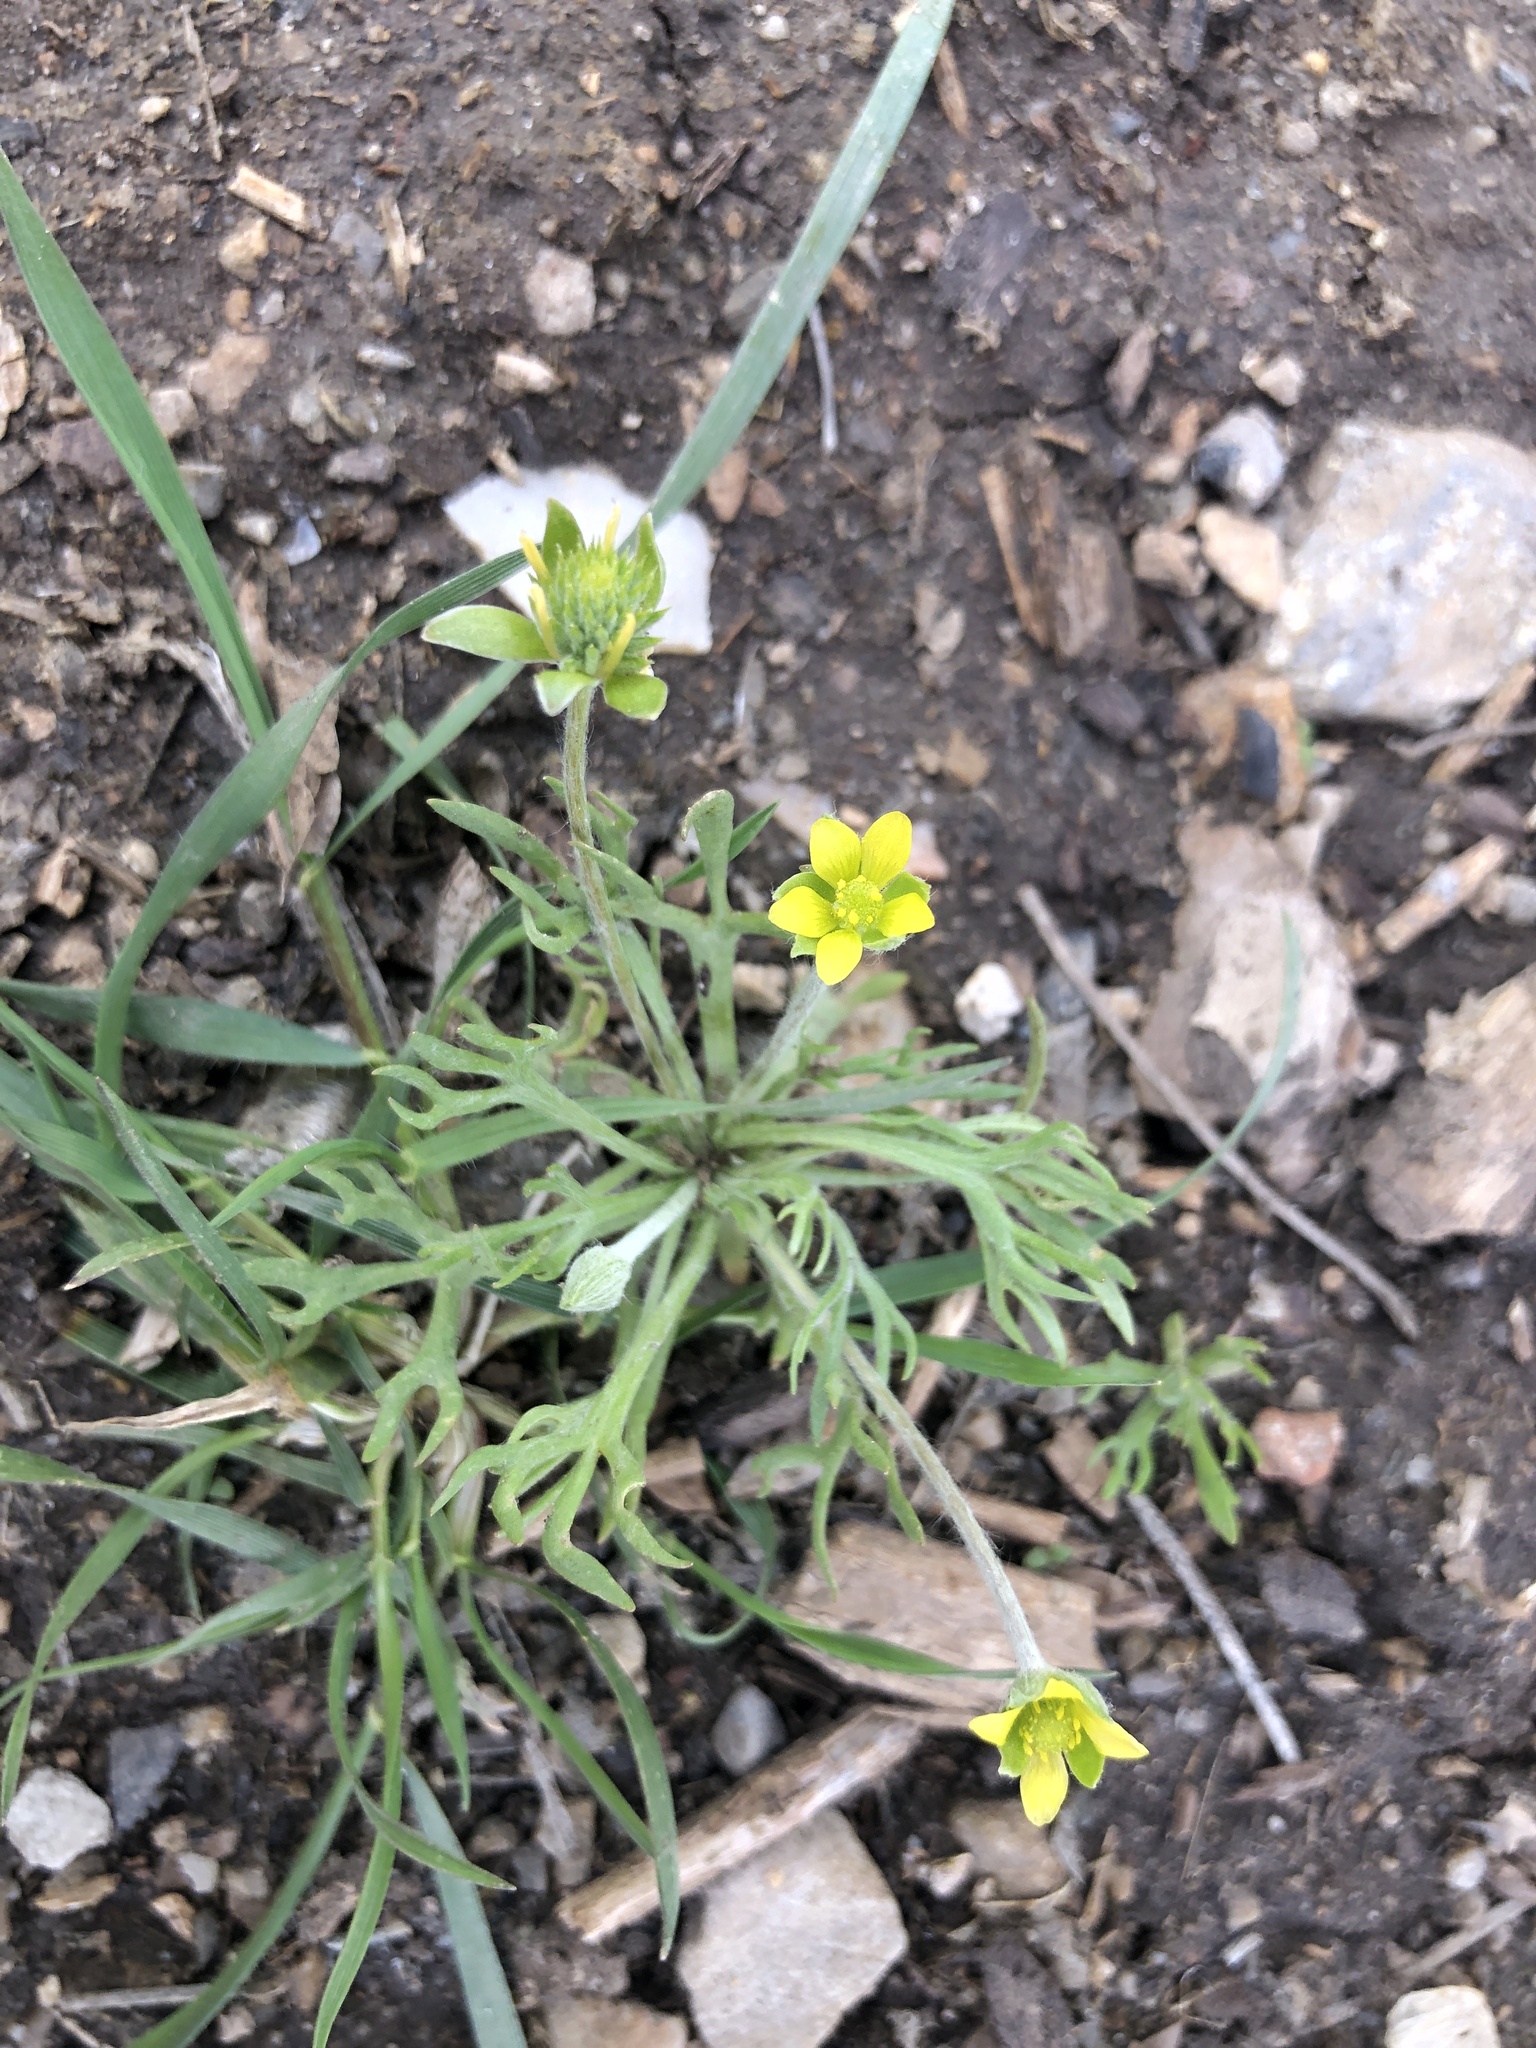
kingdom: Plantae
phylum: Tracheophyta
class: Magnoliopsida
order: Ranunculales
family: Ranunculaceae
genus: Ceratocephala
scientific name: Ceratocephala orthoceras
